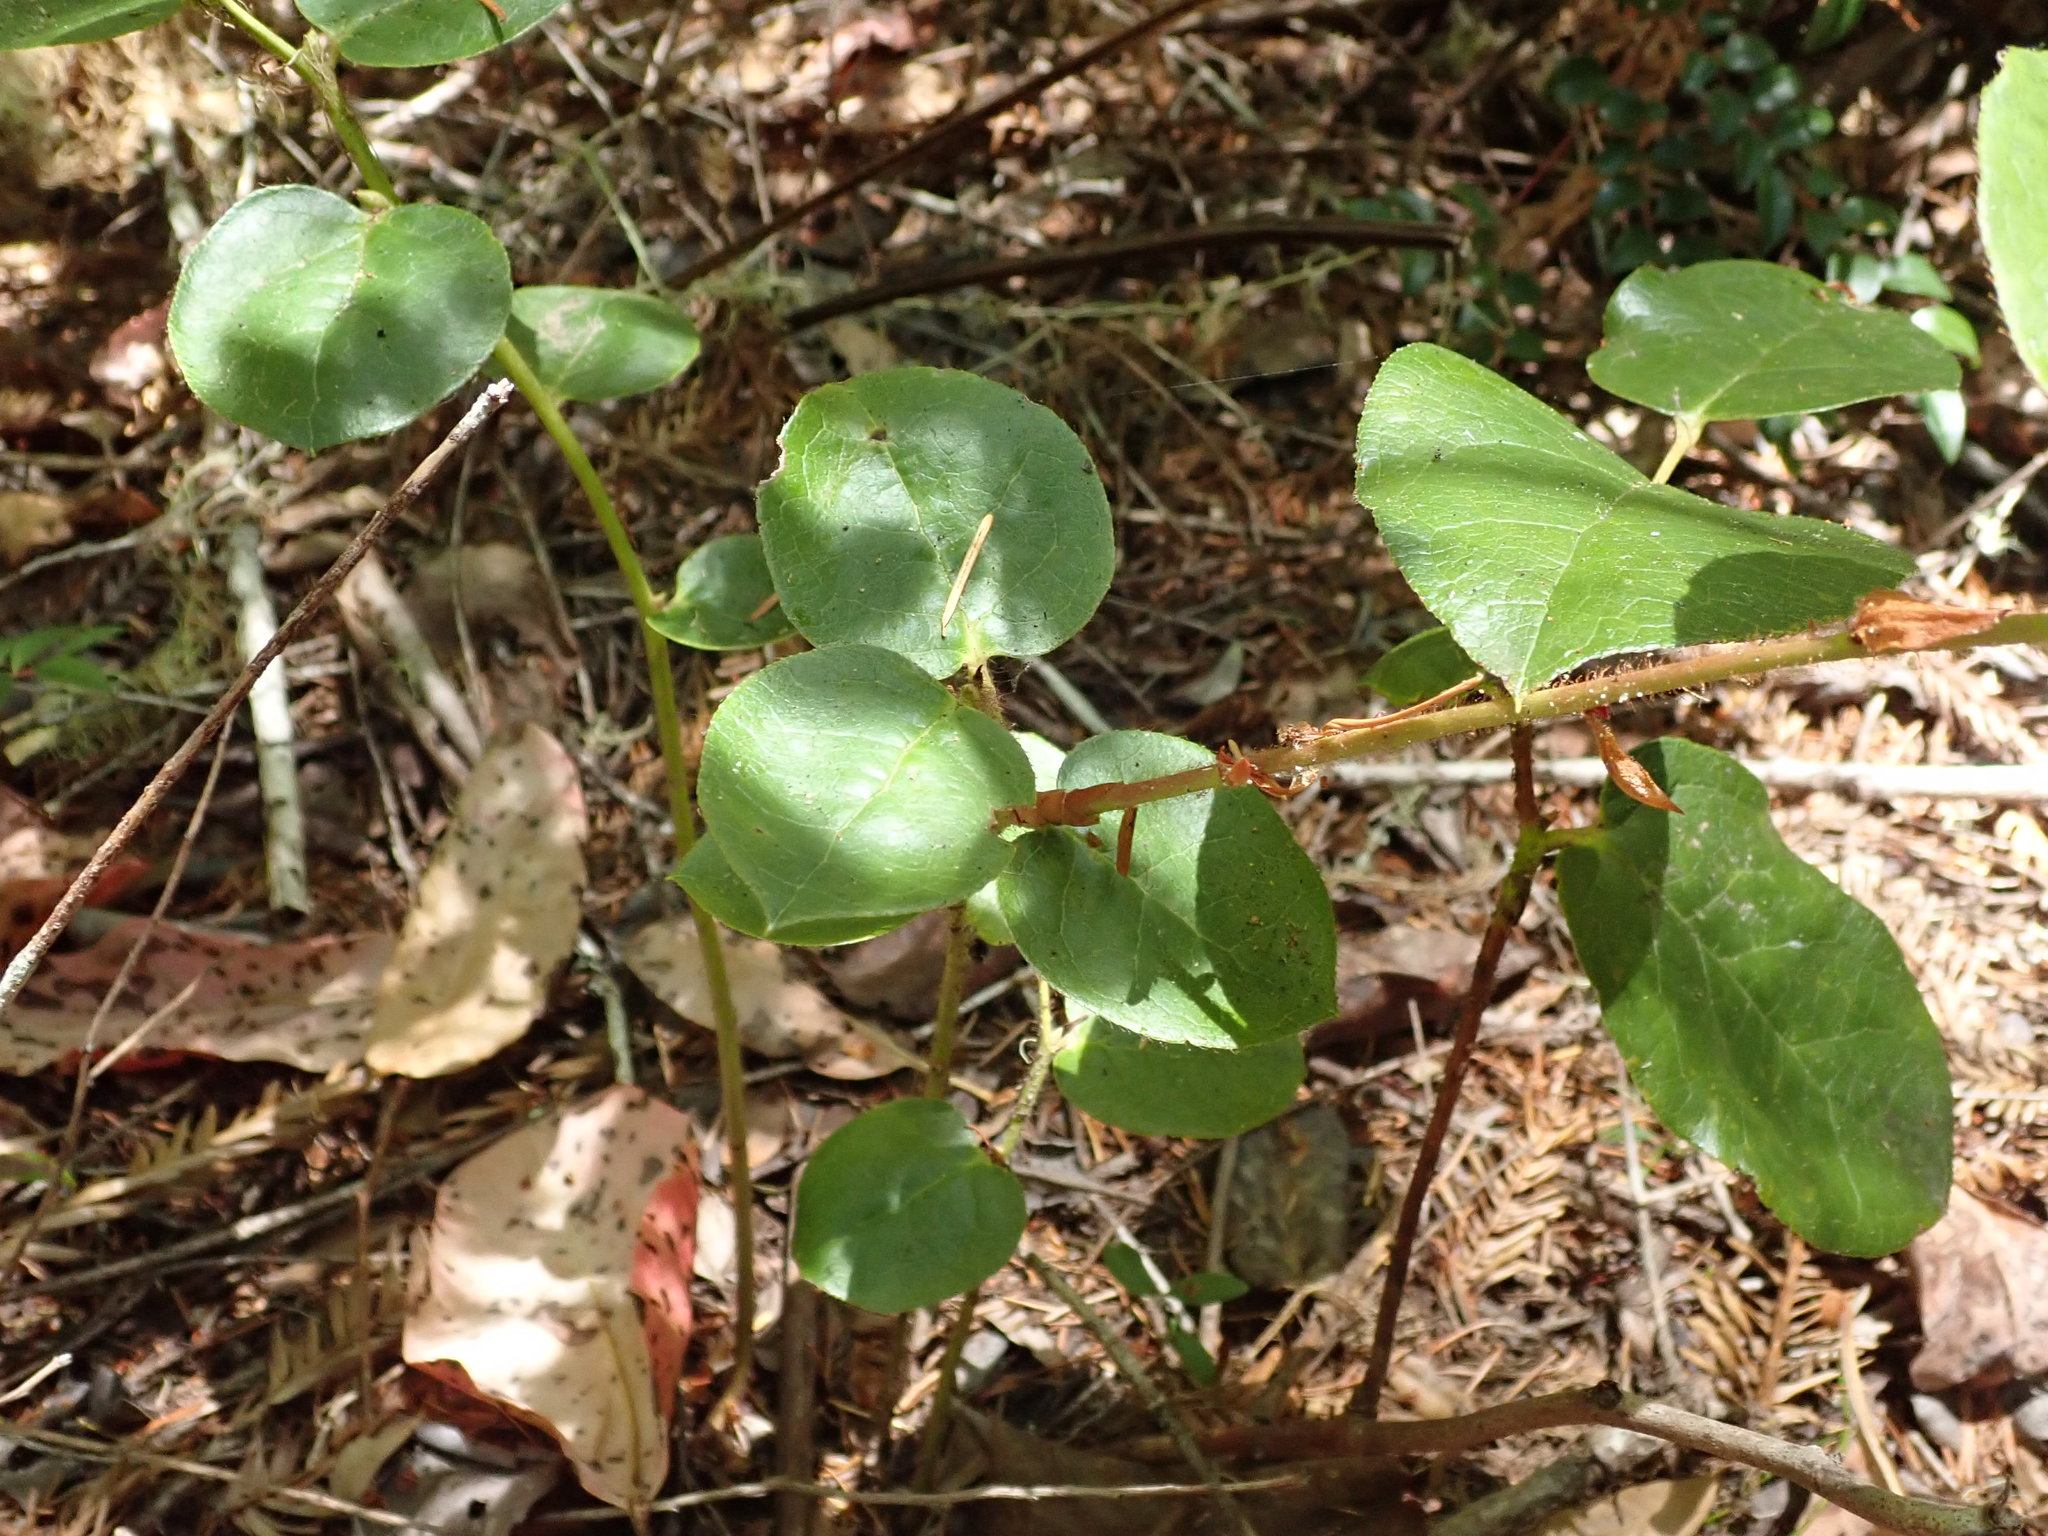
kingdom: Plantae
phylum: Tracheophyta
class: Magnoliopsida
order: Ericales
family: Ericaceae
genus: Gaultheria
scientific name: Gaultheria shallon
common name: Shallon
